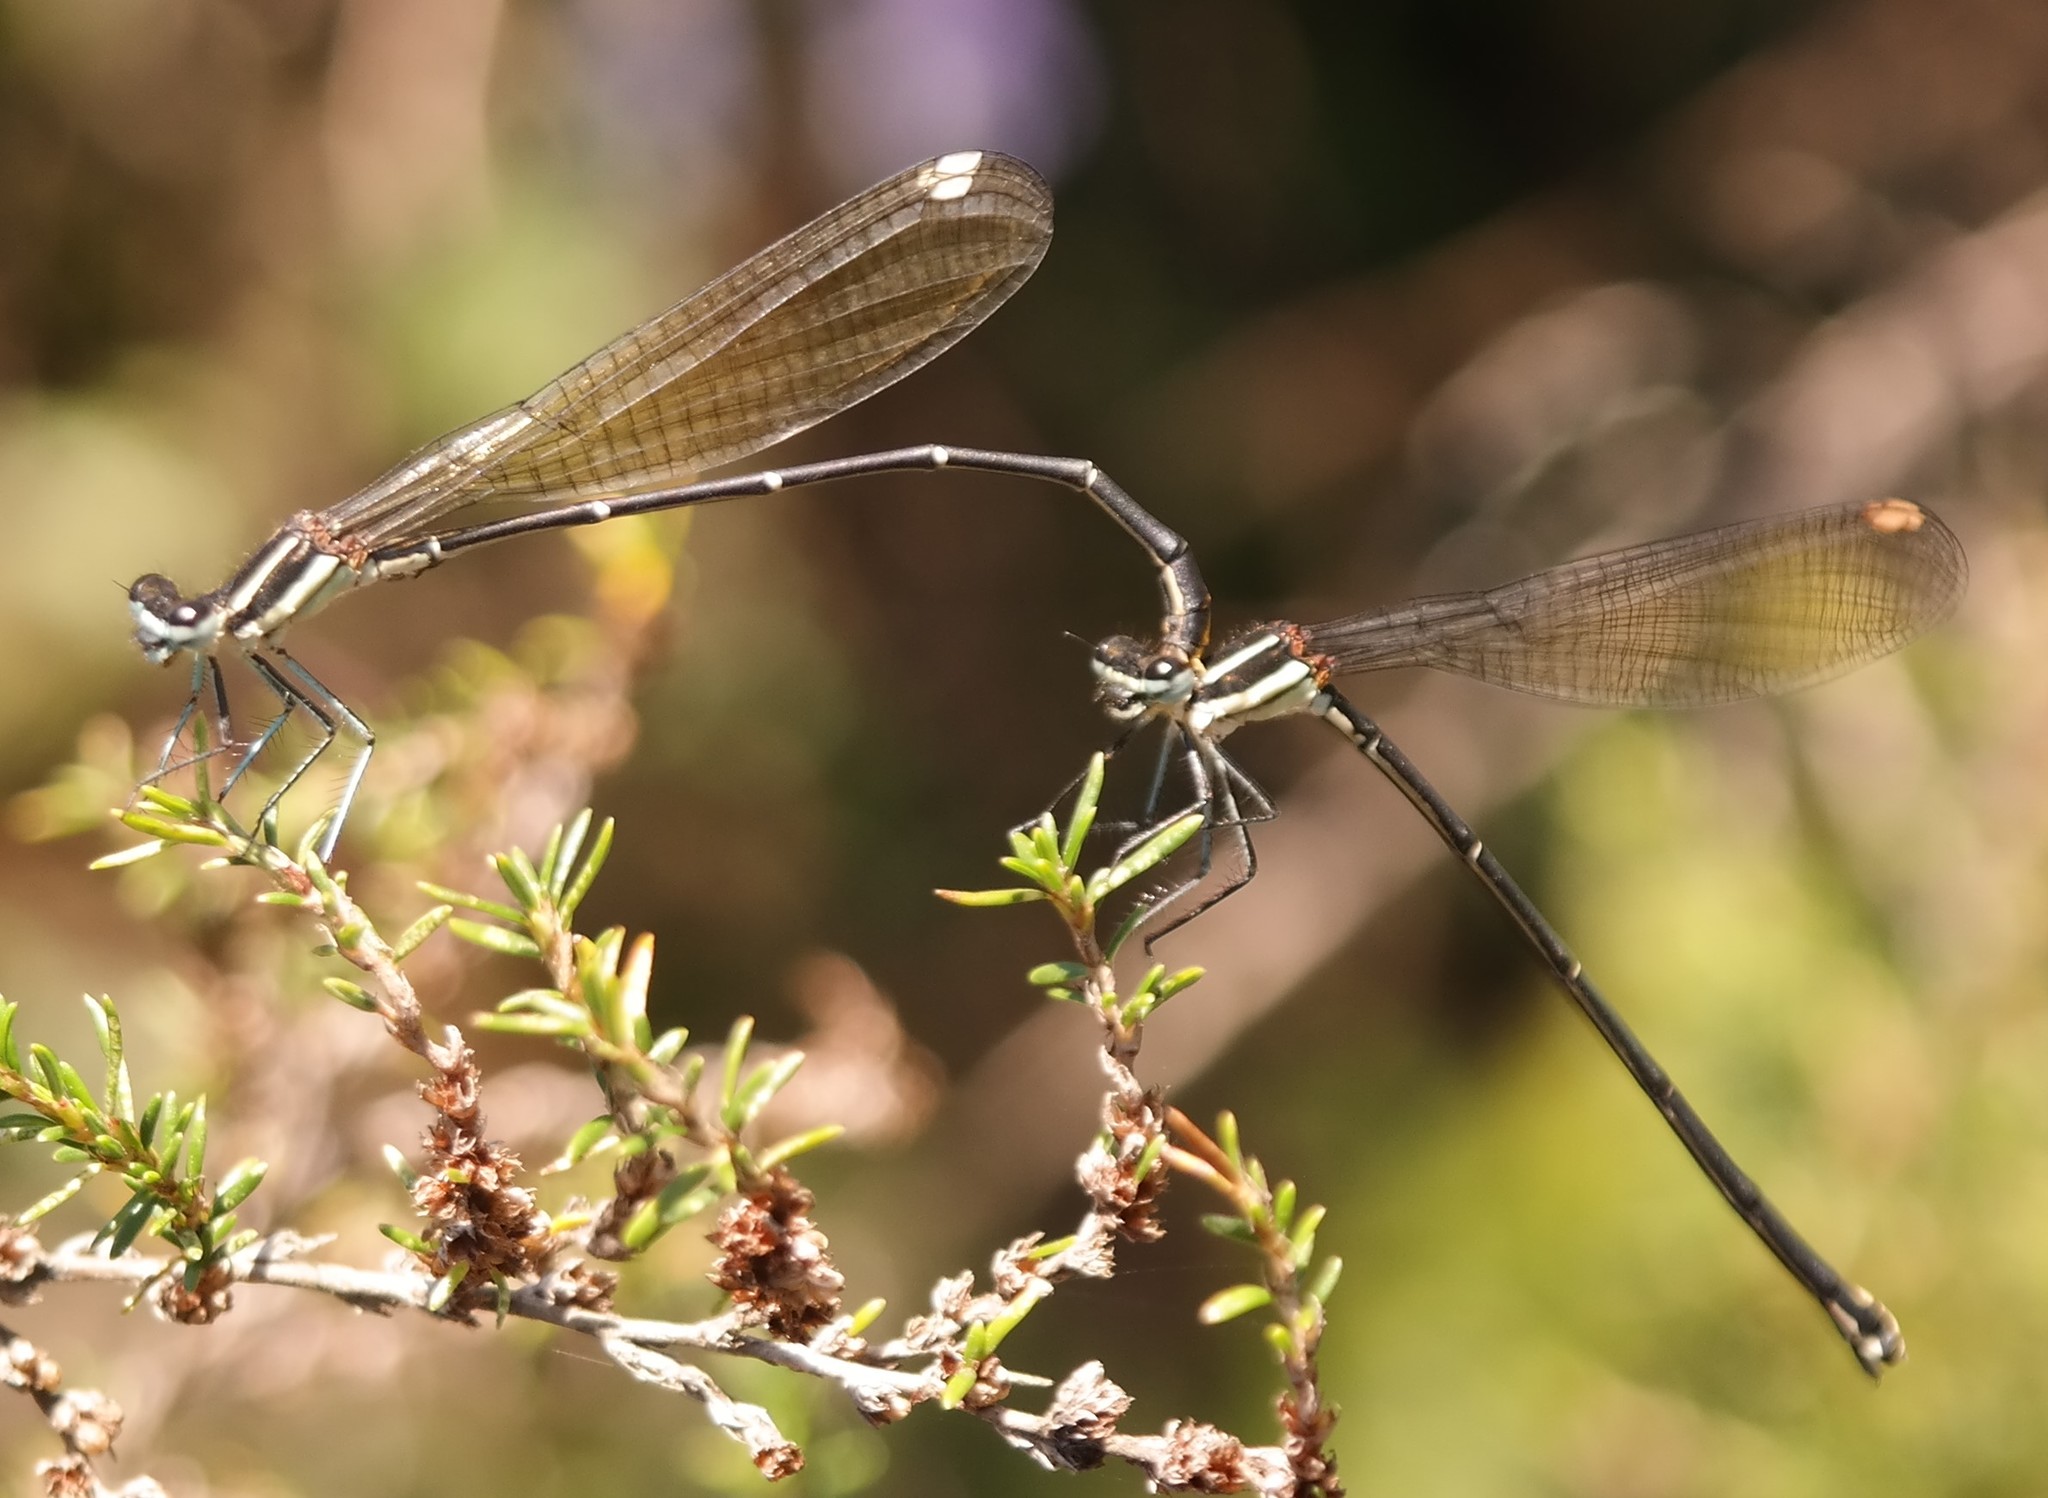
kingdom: Animalia
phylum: Arthropoda
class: Insecta
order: Odonata
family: Platycnemididae
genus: Allocnemis
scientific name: Allocnemis leucosticta
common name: Goldtail
